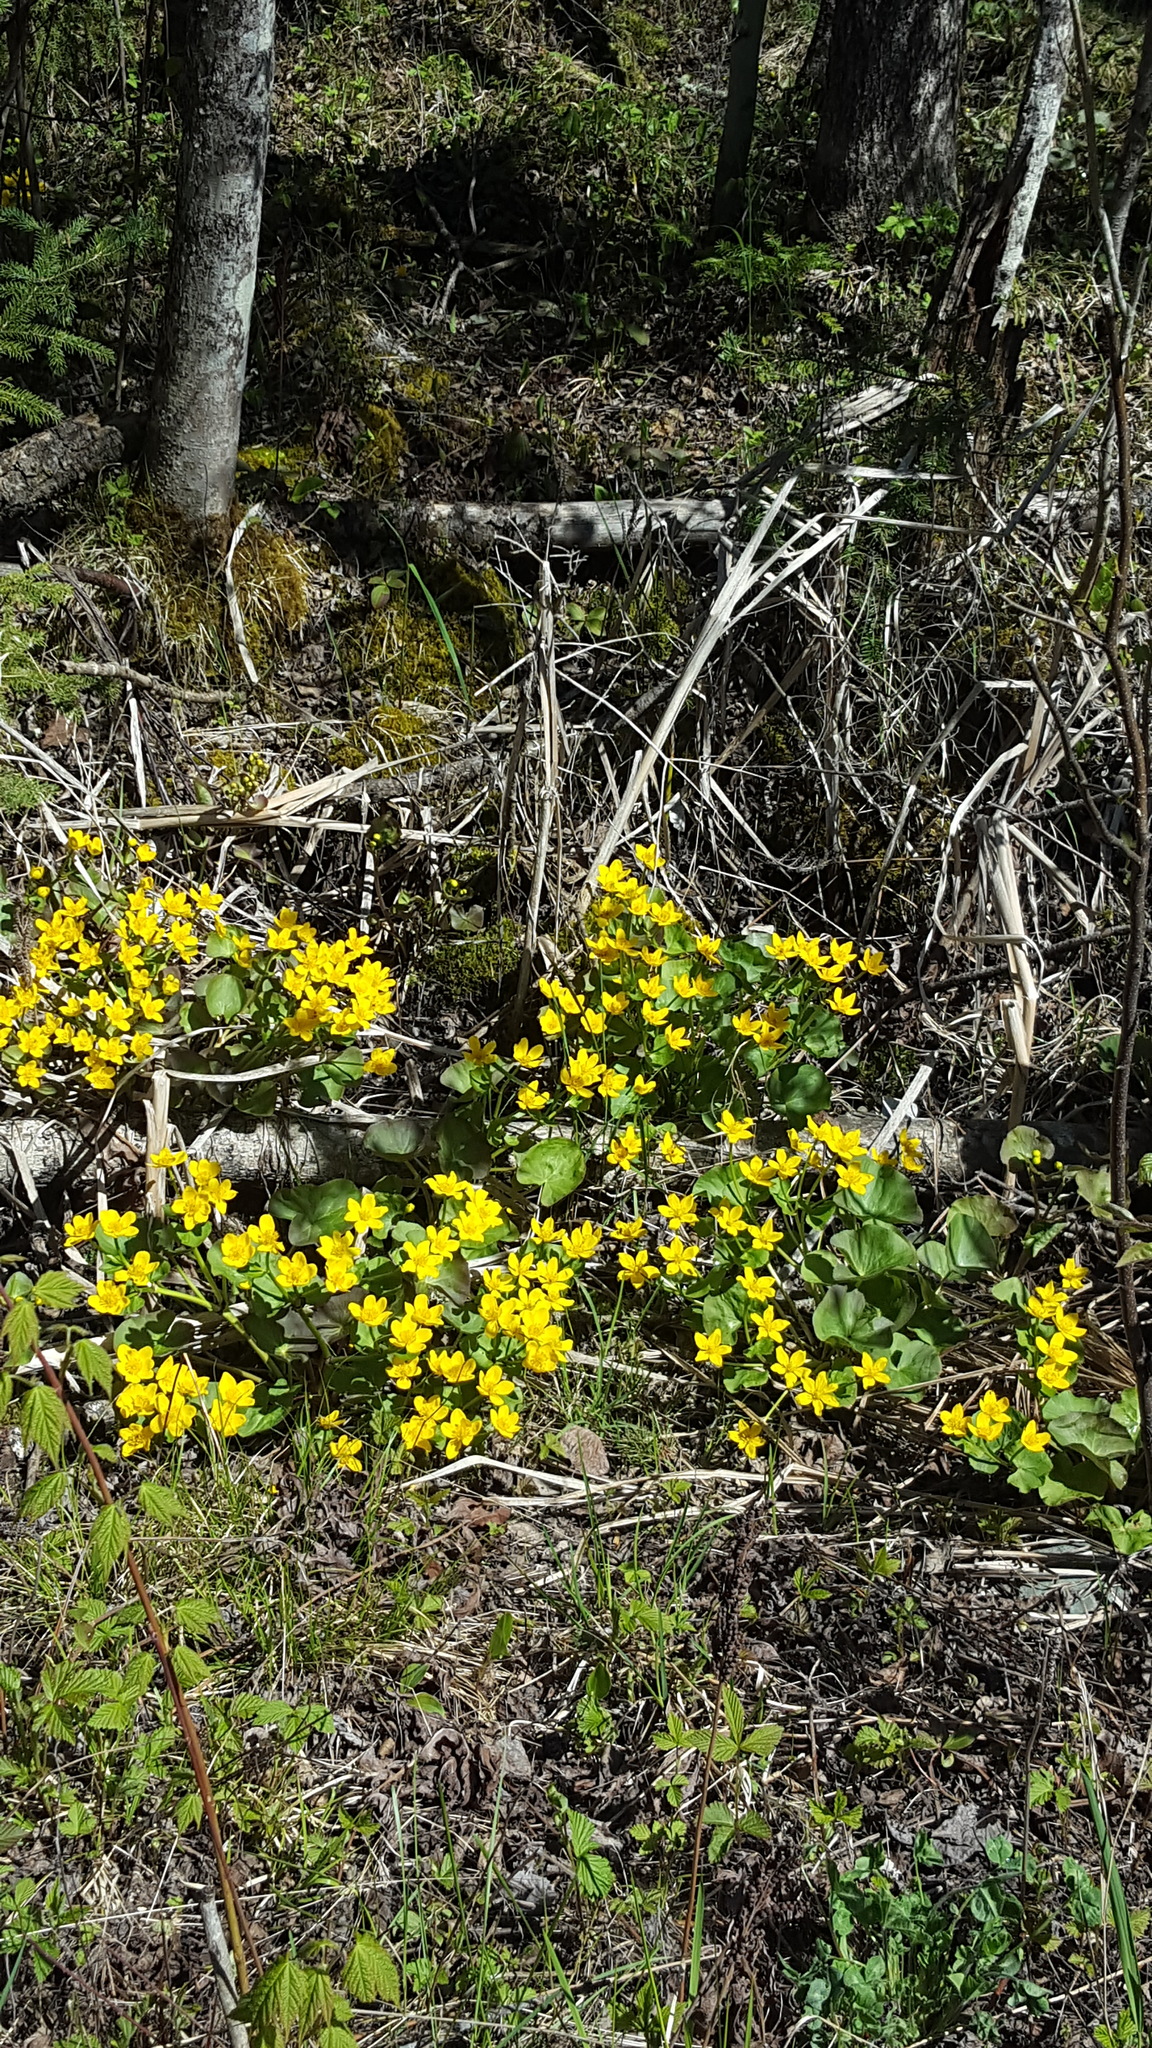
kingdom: Plantae
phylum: Tracheophyta
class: Magnoliopsida
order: Ranunculales
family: Ranunculaceae
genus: Caltha
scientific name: Caltha palustris
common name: Marsh marigold
